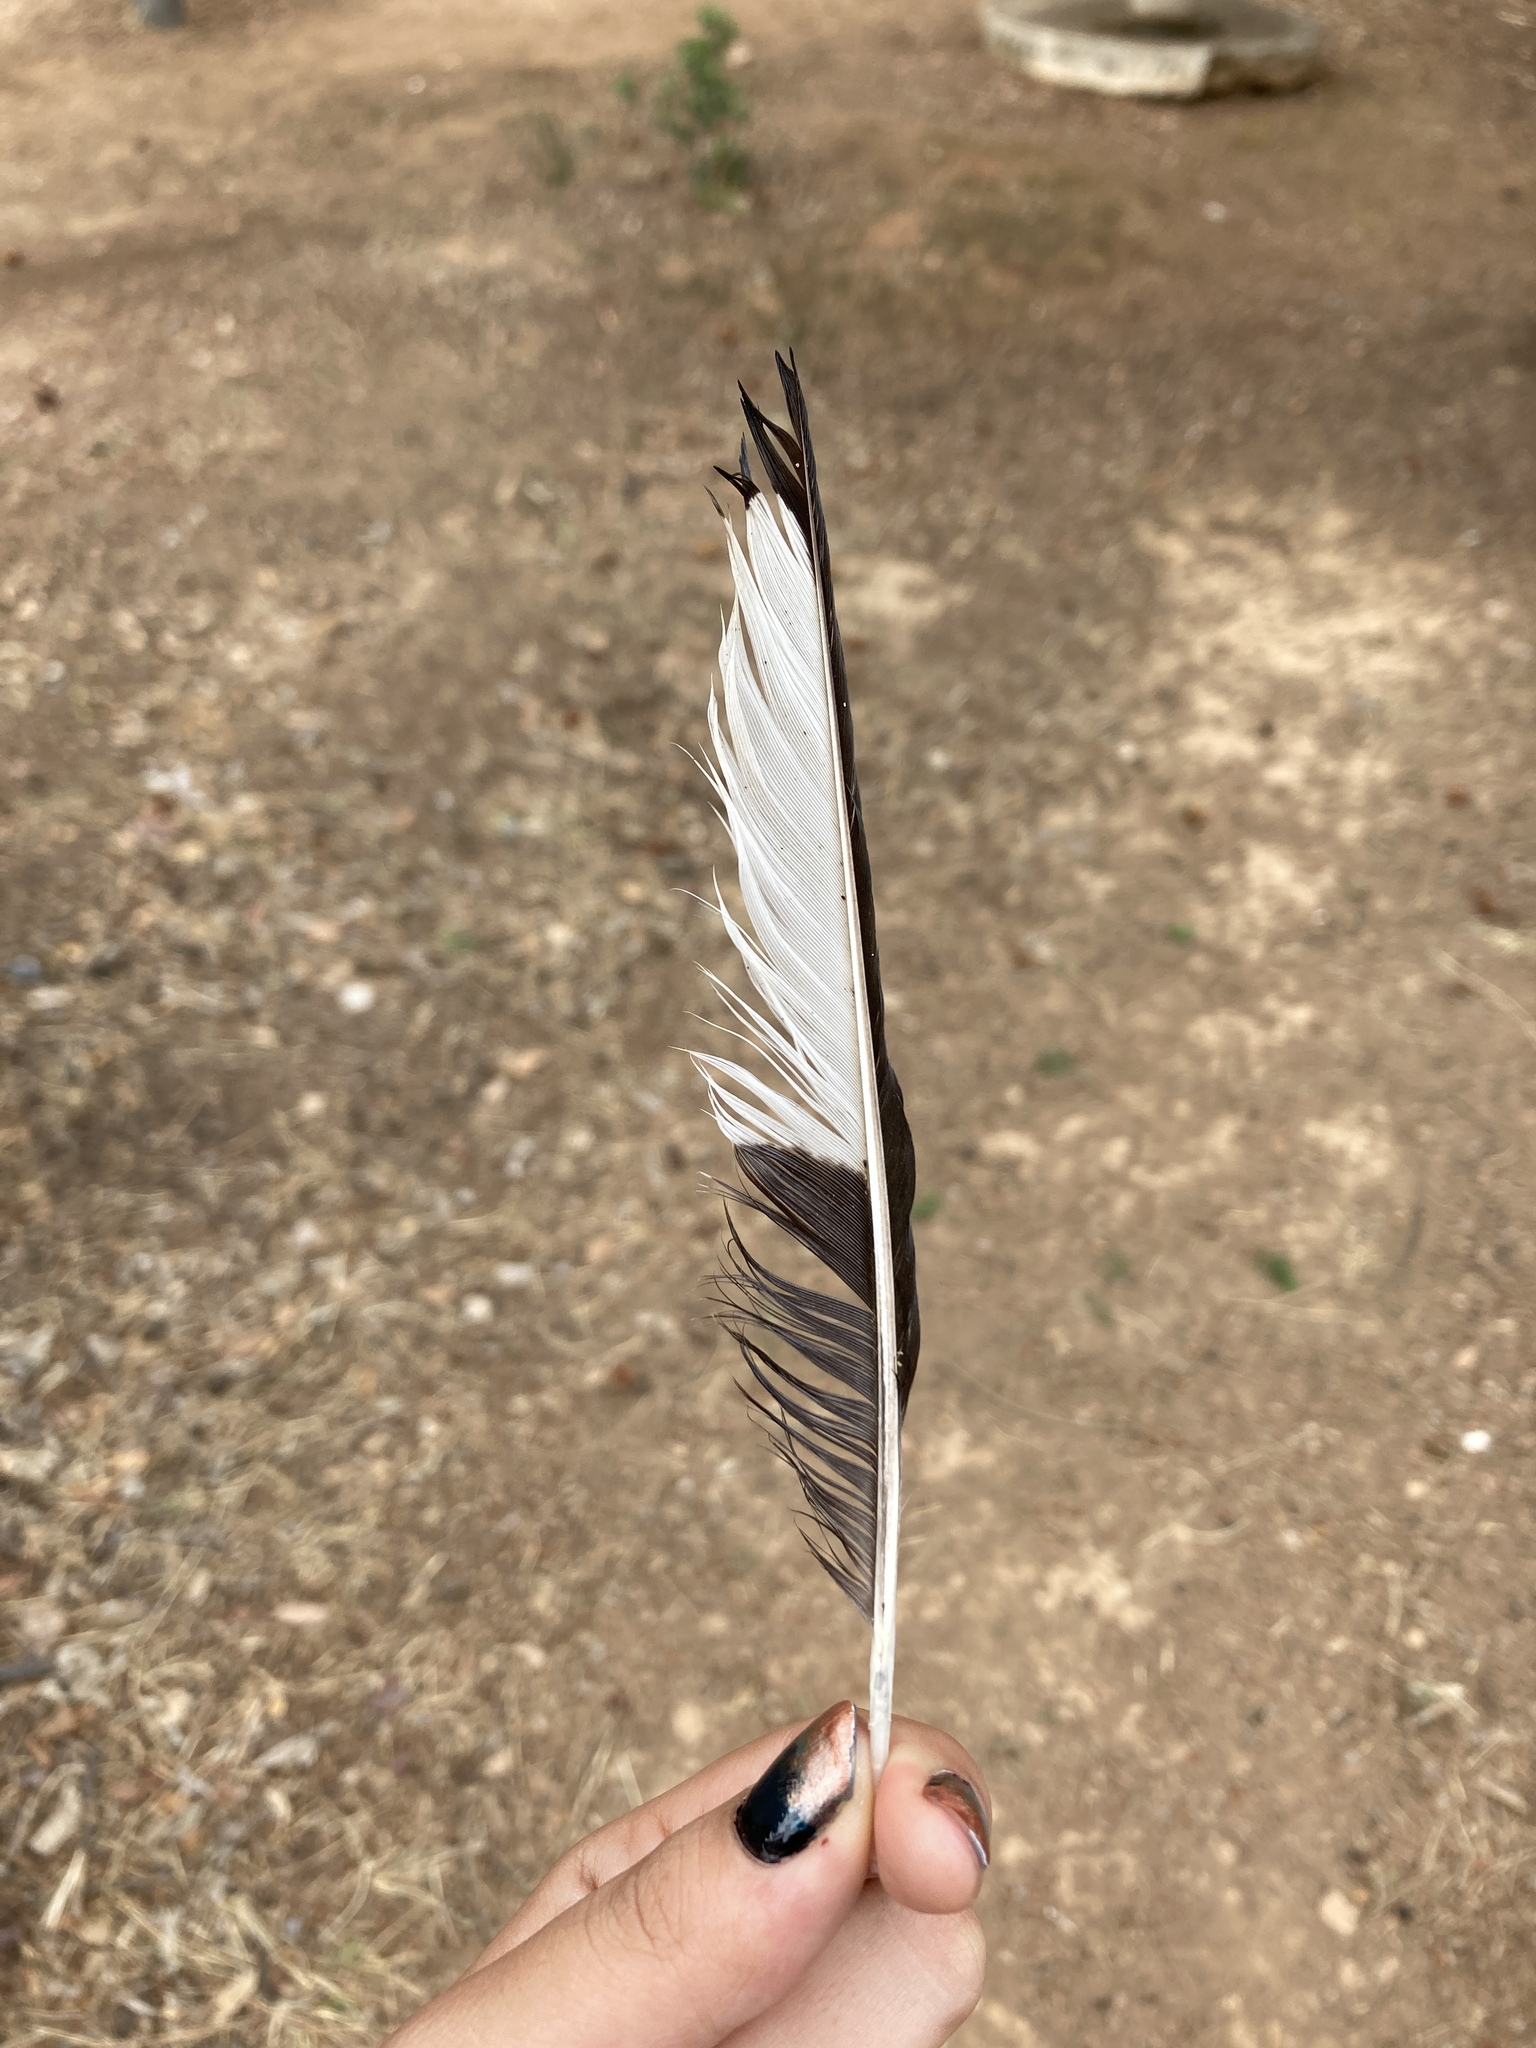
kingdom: Animalia
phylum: Chordata
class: Aves
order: Passeriformes
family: Corvidae
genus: Pica
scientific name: Pica pica
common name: Eurasian magpie
